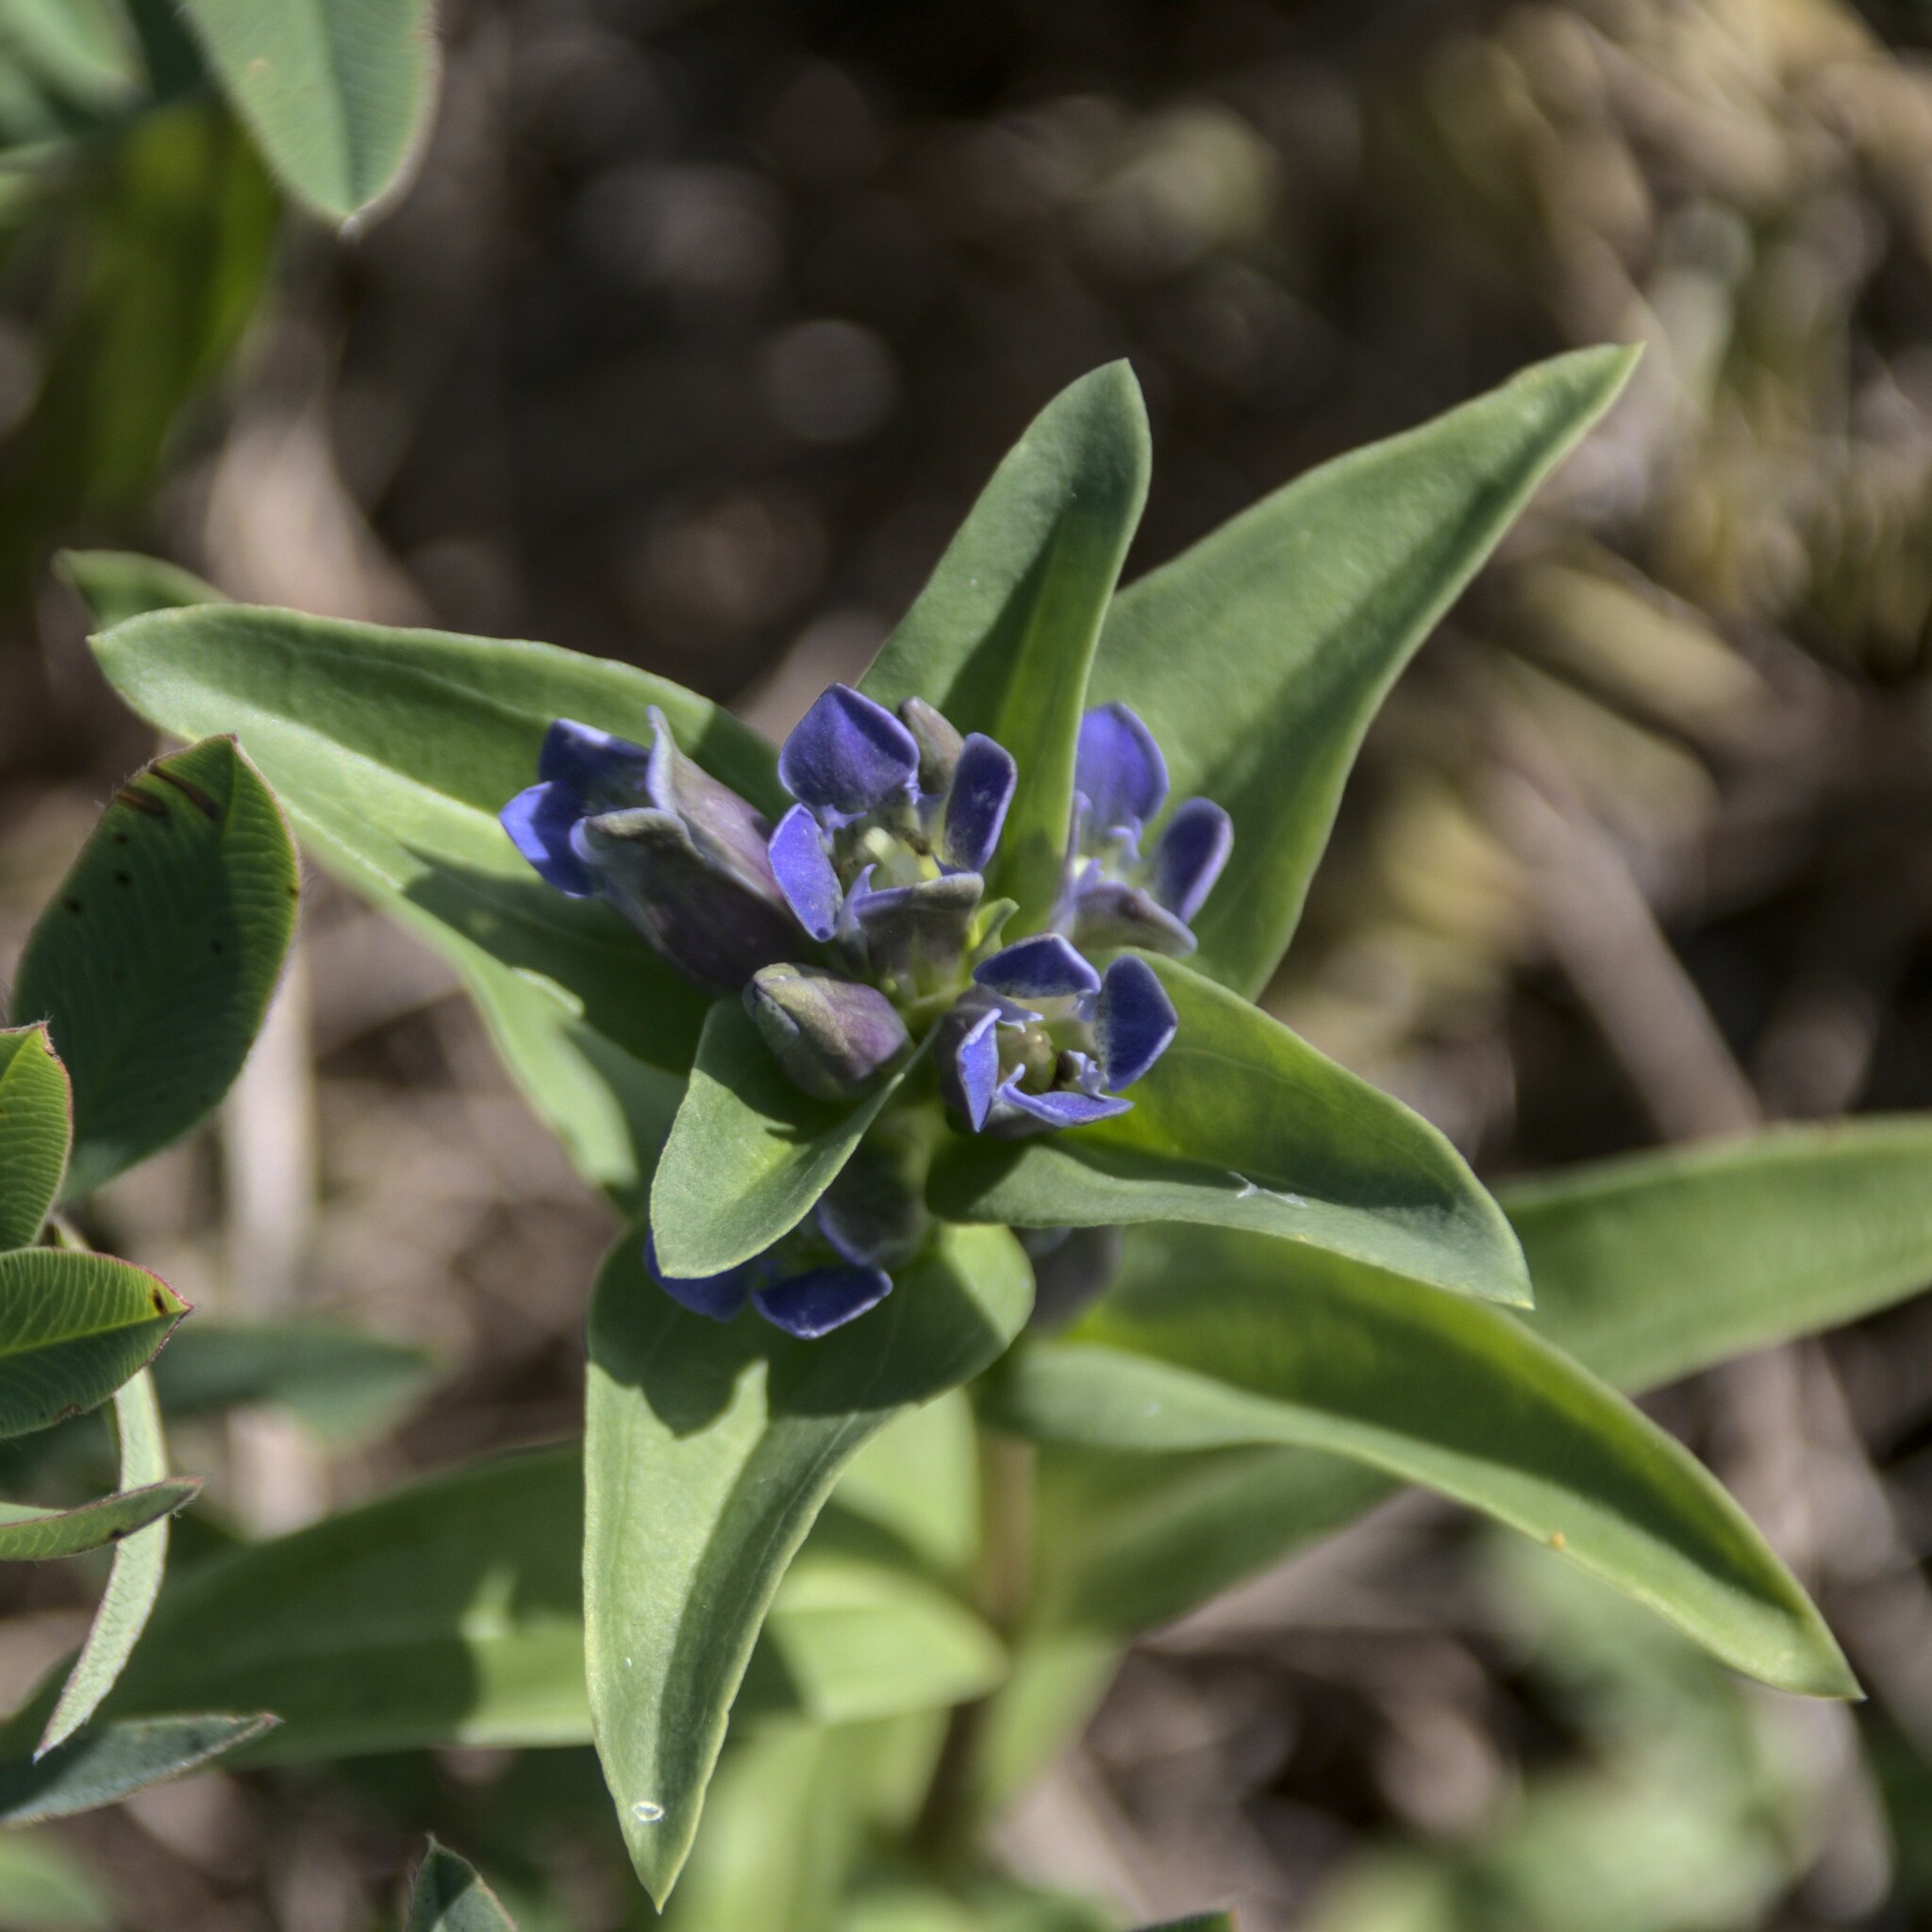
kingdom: Plantae
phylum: Tracheophyta
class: Magnoliopsida
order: Gentianales
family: Gentianaceae
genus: Gentiana
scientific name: Gentiana cruciata
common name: Cross gentian
